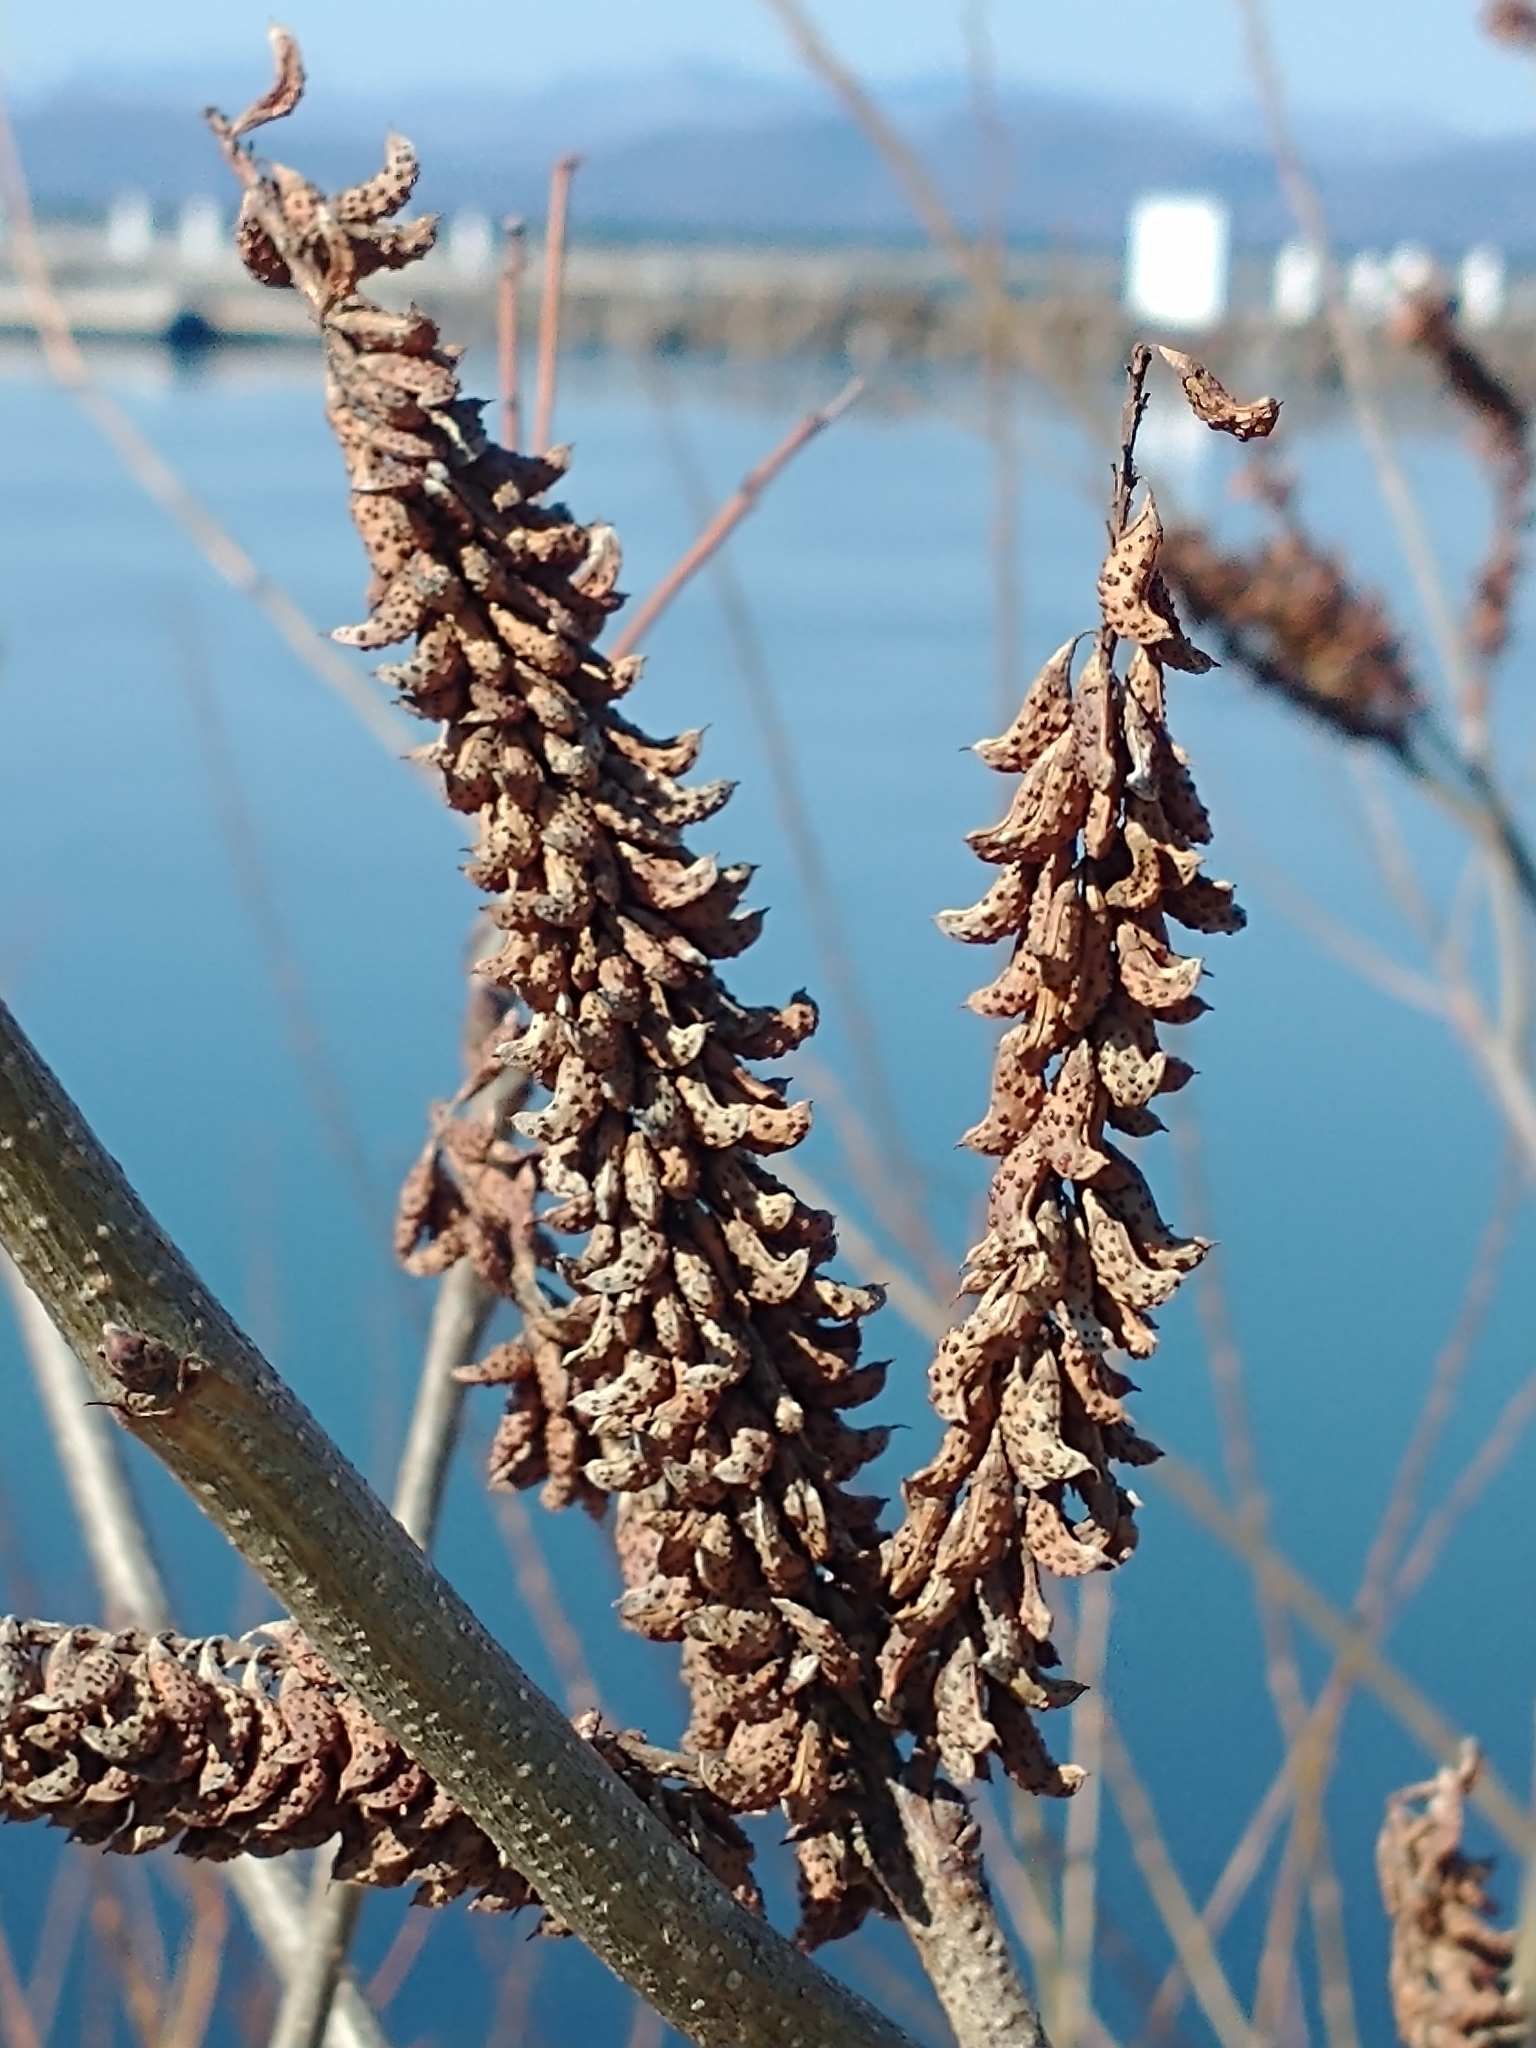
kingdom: Plantae
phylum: Tracheophyta
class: Magnoliopsida
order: Fabales
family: Fabaceae
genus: Amorpha
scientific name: Amorpha fruticosa
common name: False indigo
